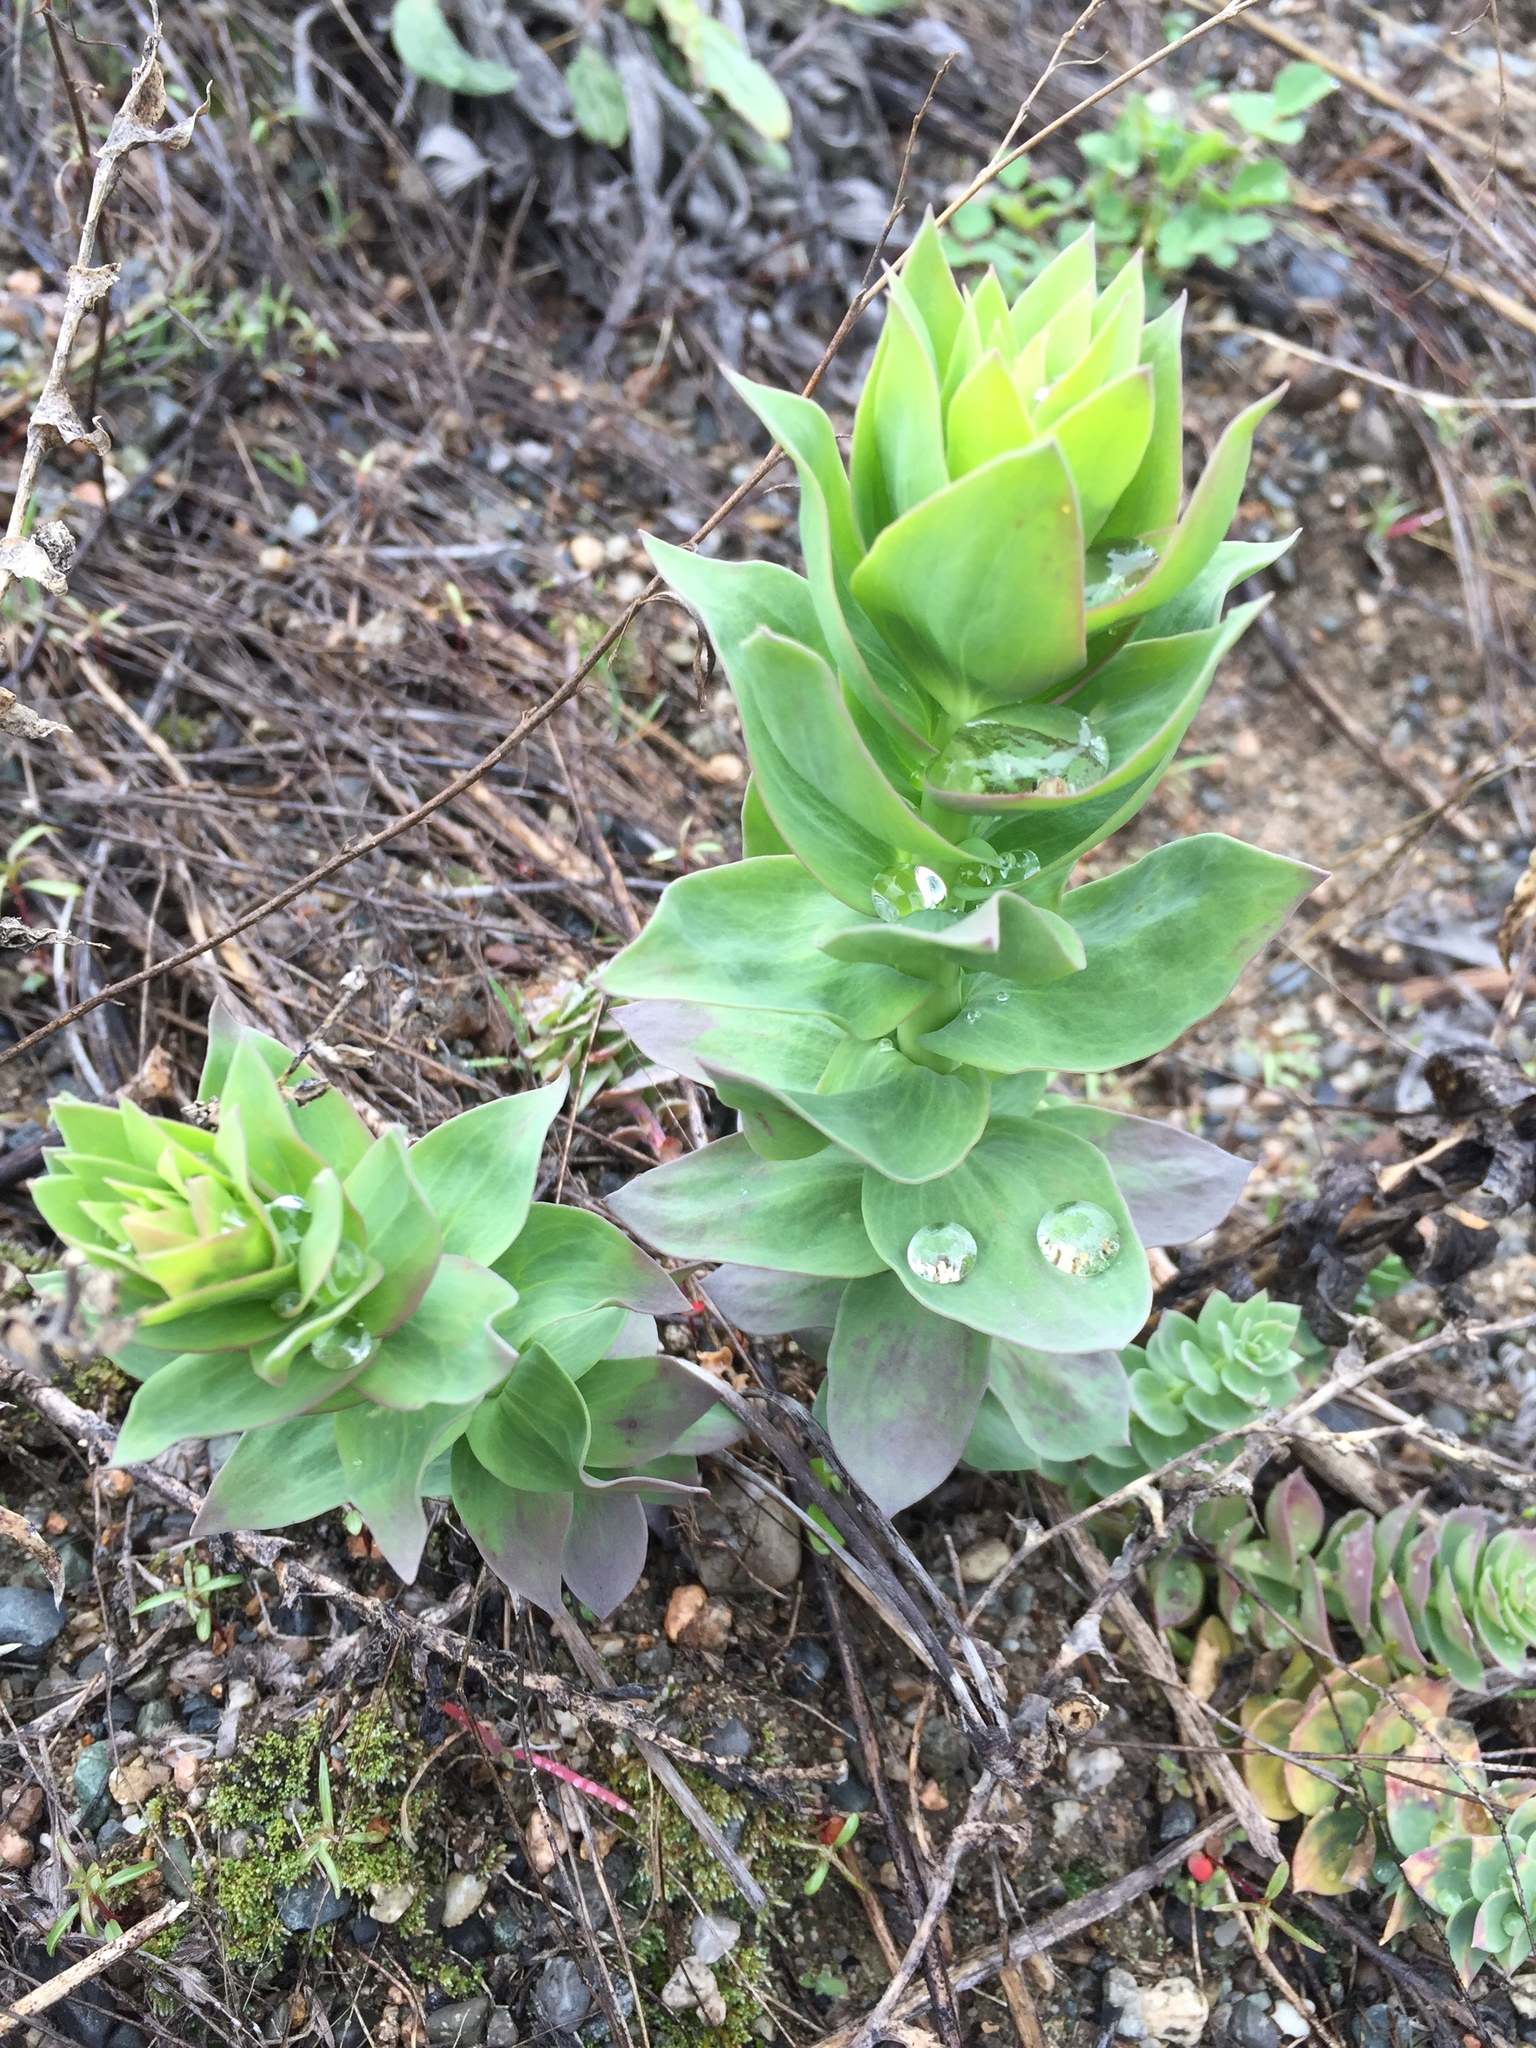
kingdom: Plantae
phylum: Tracheophyta
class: Magnoliopsida
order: Lamiales
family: Plantaginaceae
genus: Linaria
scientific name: Linaria dalmatica
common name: Dalmatian toadflax
